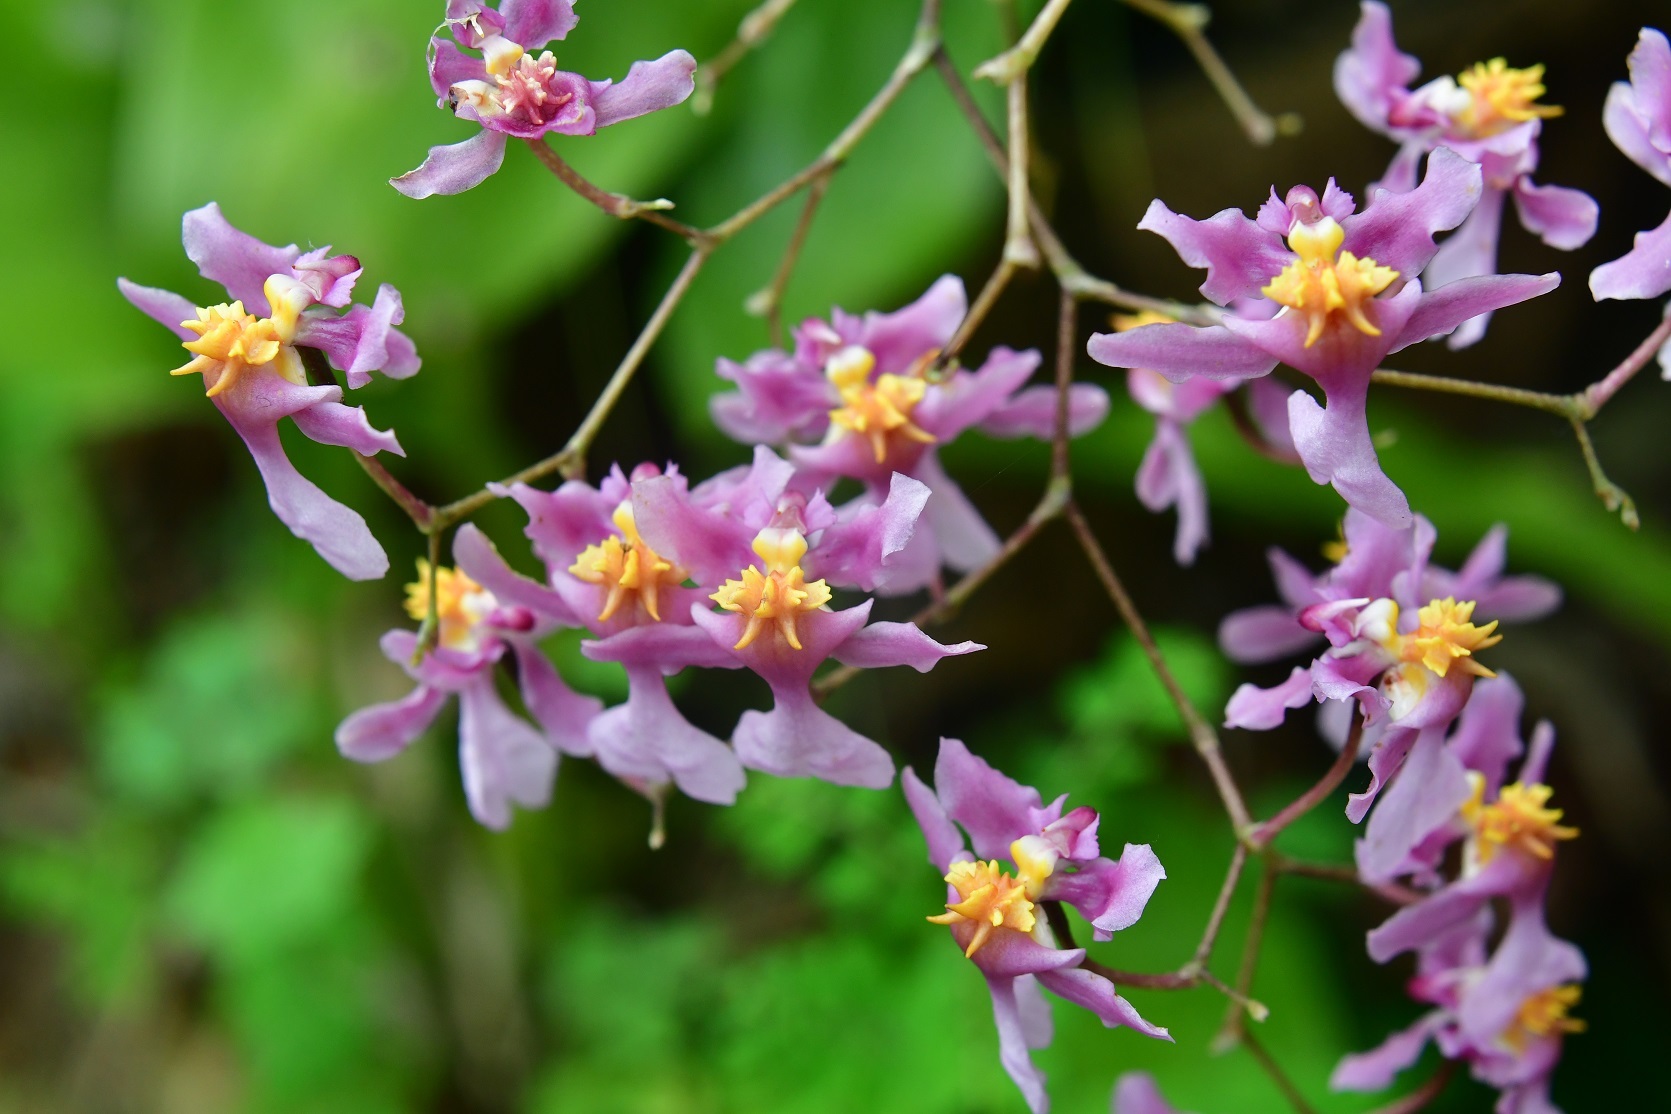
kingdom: Plantae
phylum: Tracheophyta
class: Liliopsida
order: Asparagales
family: Orchidaceae
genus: Oncidium
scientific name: Oncidium sotoanum
